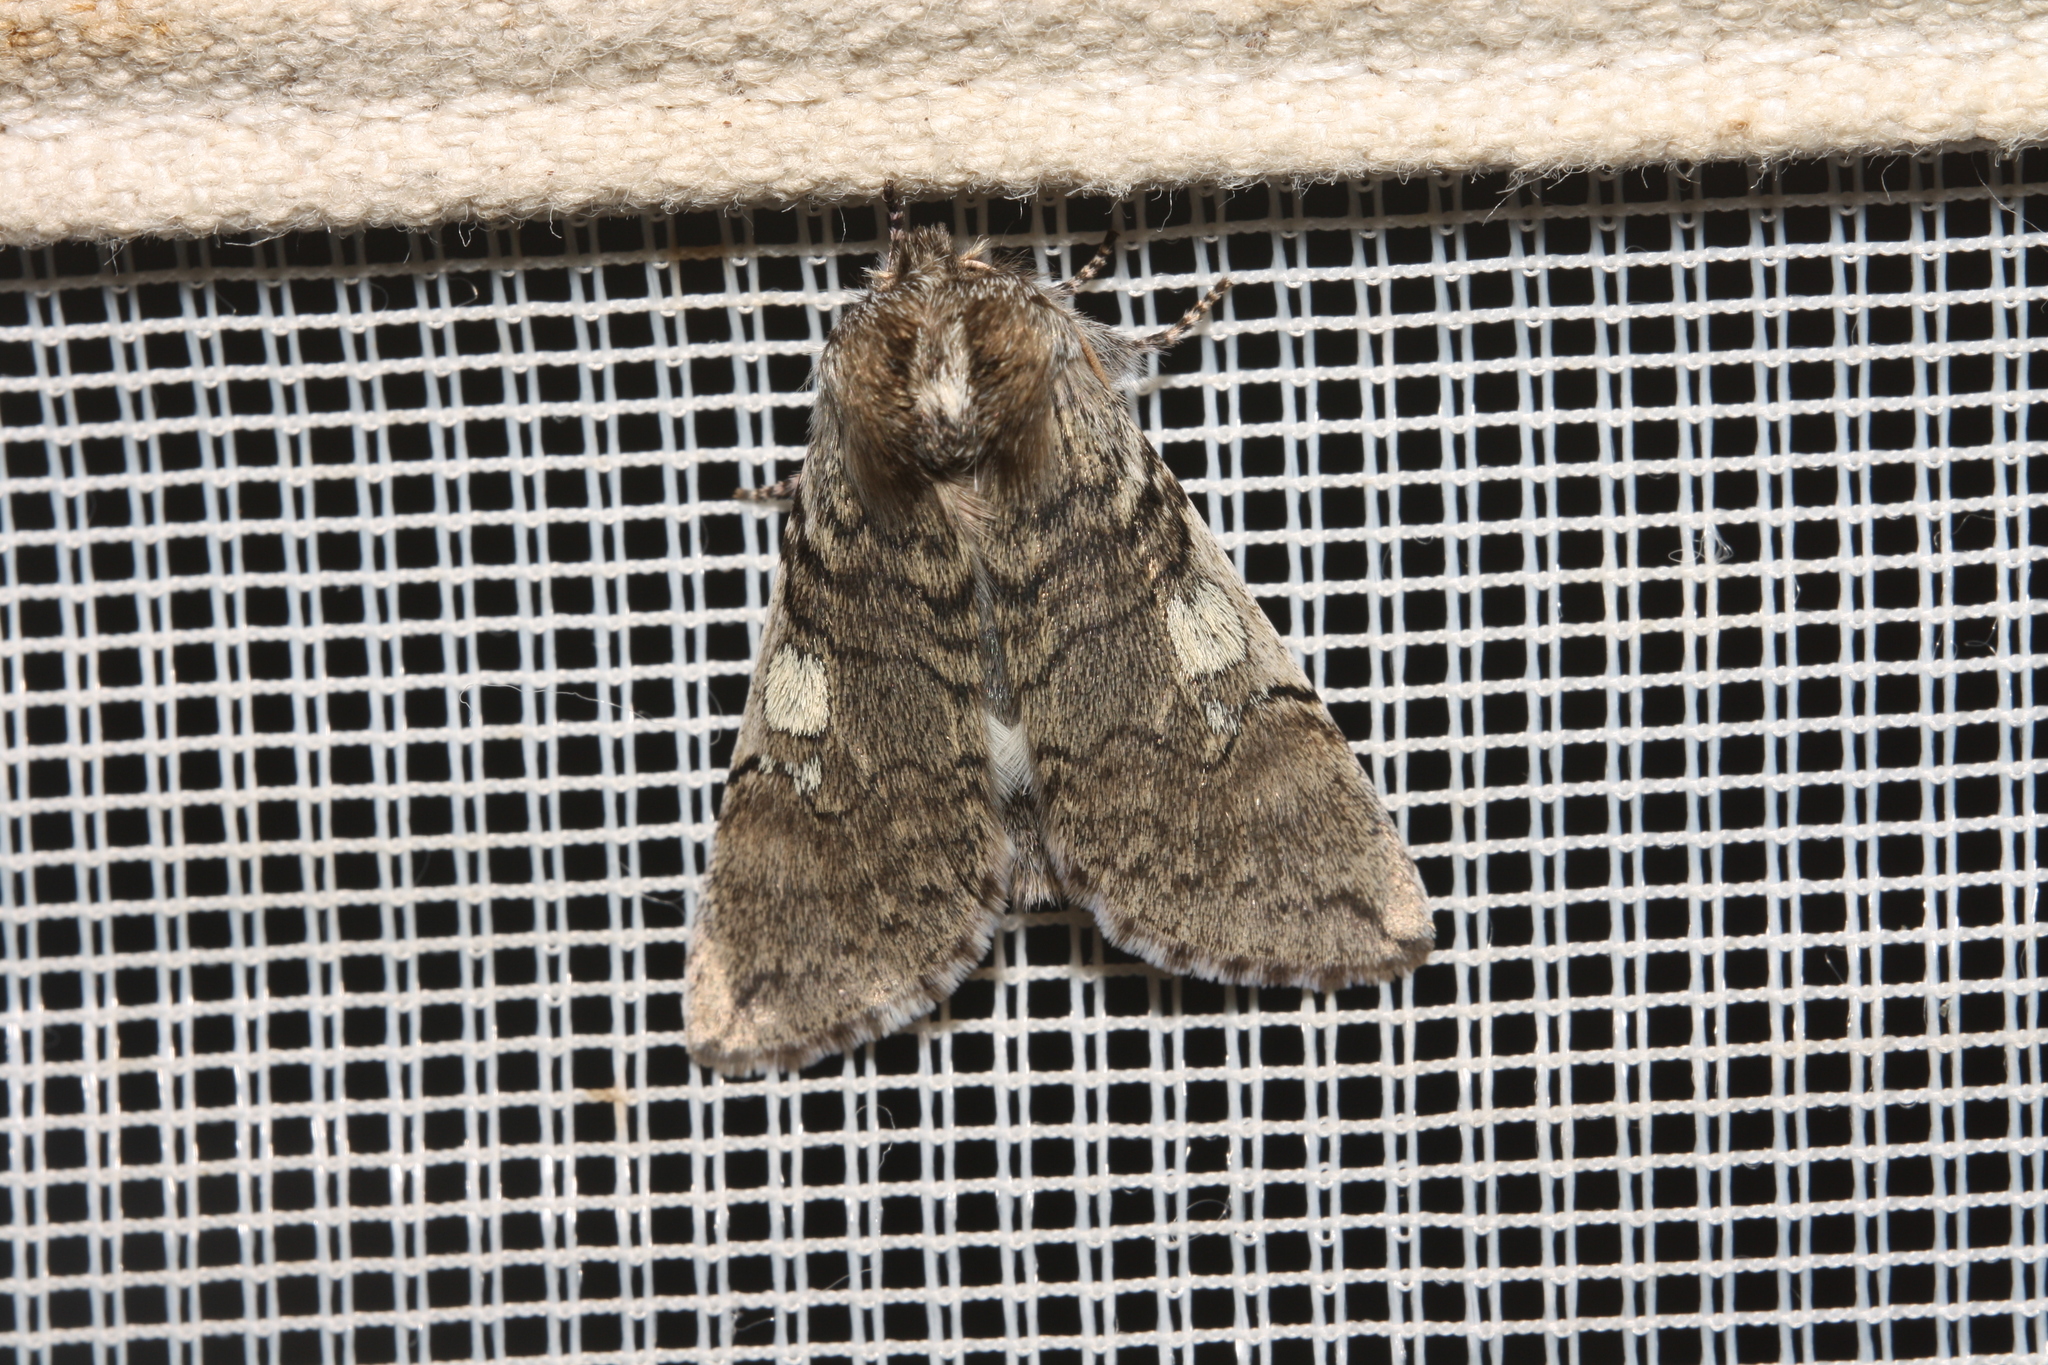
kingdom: Animalia
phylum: Arthropoda
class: Insecta
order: Lepidoptera
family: Drepanidae
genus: Achlya
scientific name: Achlya flavicornis
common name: Yellow horned
